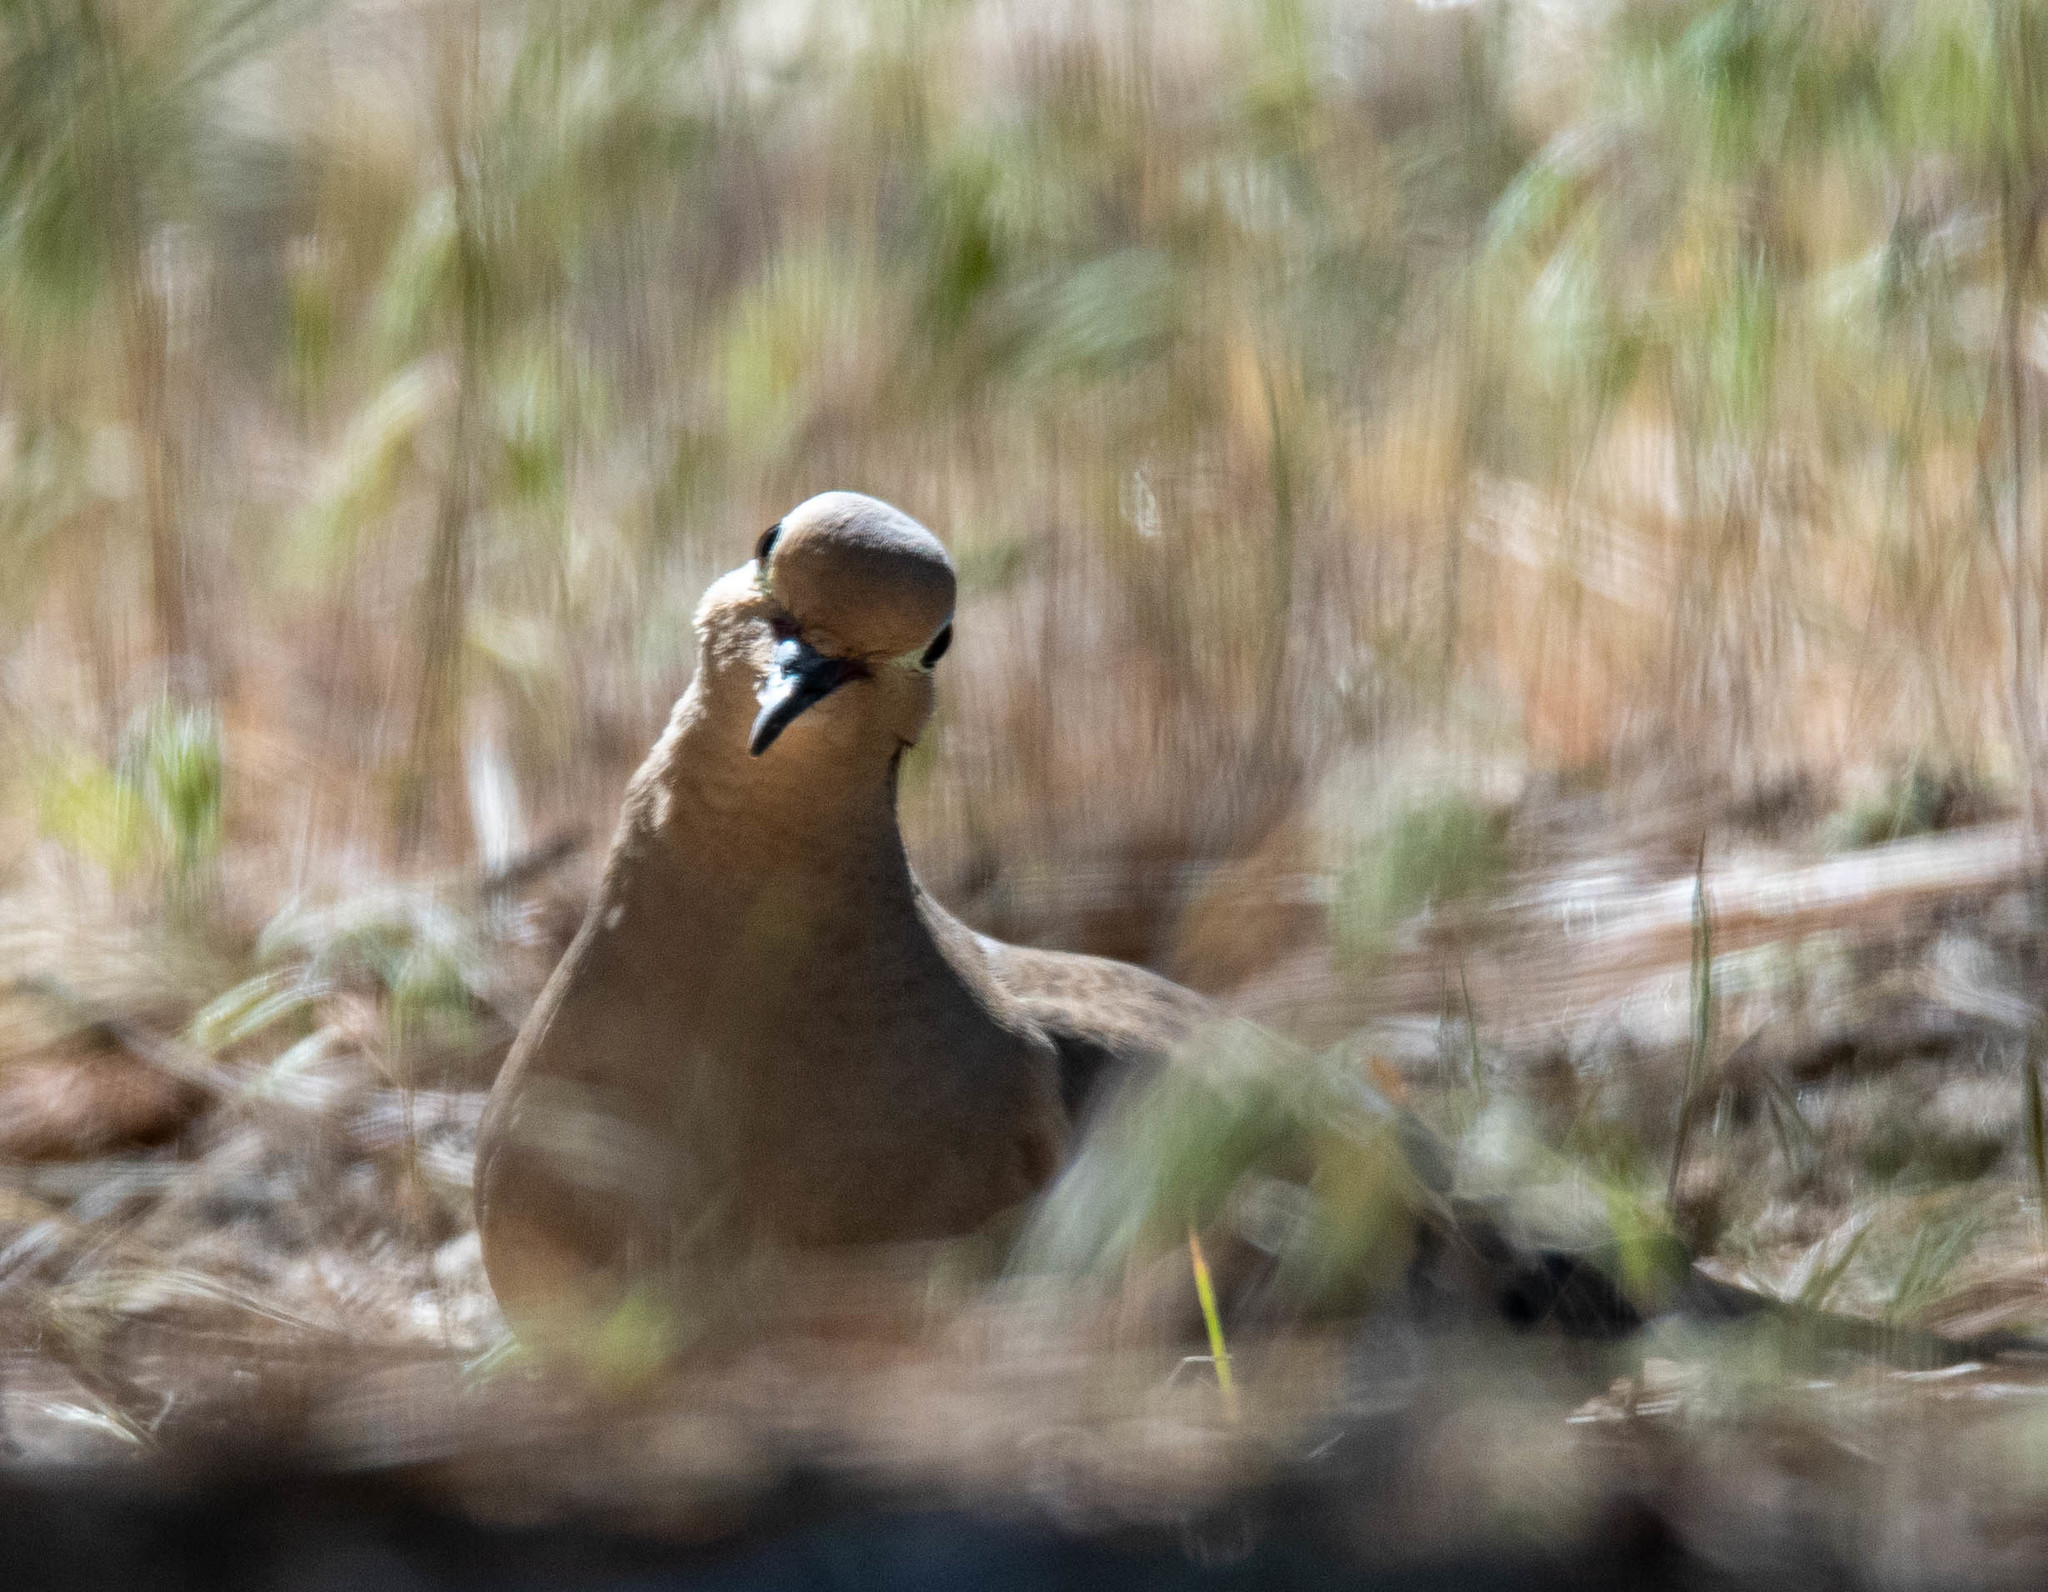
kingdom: Animalia
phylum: Chordata
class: Aves
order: Columbiformes
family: Columbidae
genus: Zenaida
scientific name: Zenaida macroura
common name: Mourning dove
